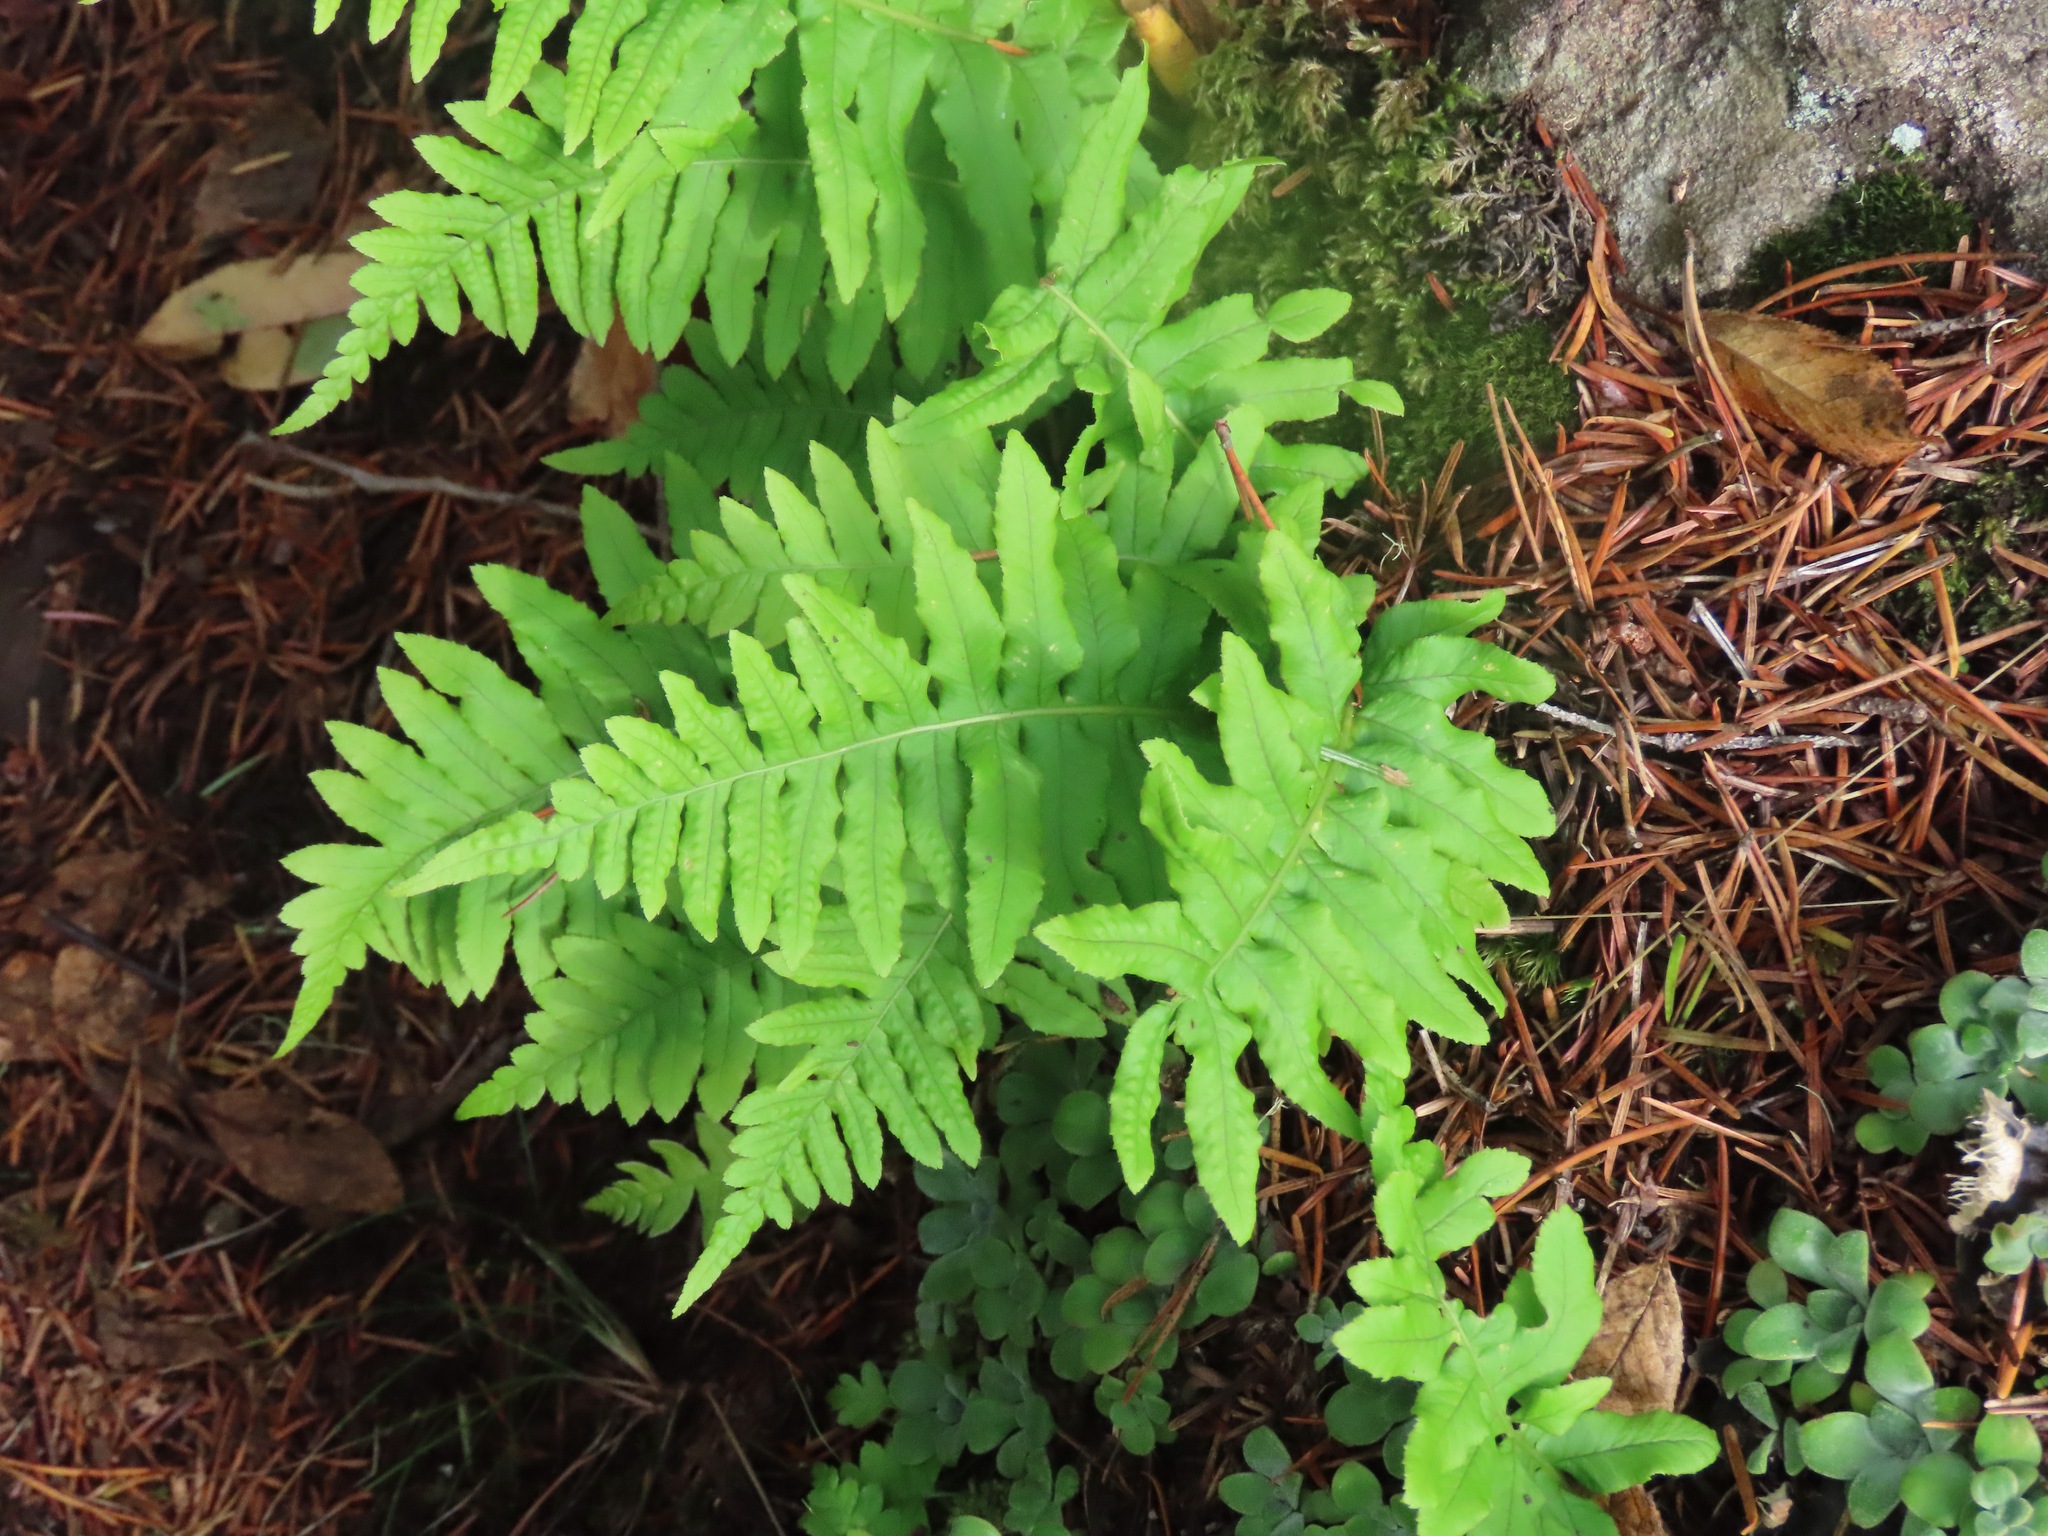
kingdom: Plantae
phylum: Tracheophyta
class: Polypodiopsida
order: Polypodiales
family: Polypodiaceae
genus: Polypodium
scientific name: Polypodium glycyrrhiza
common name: Licorice fern
